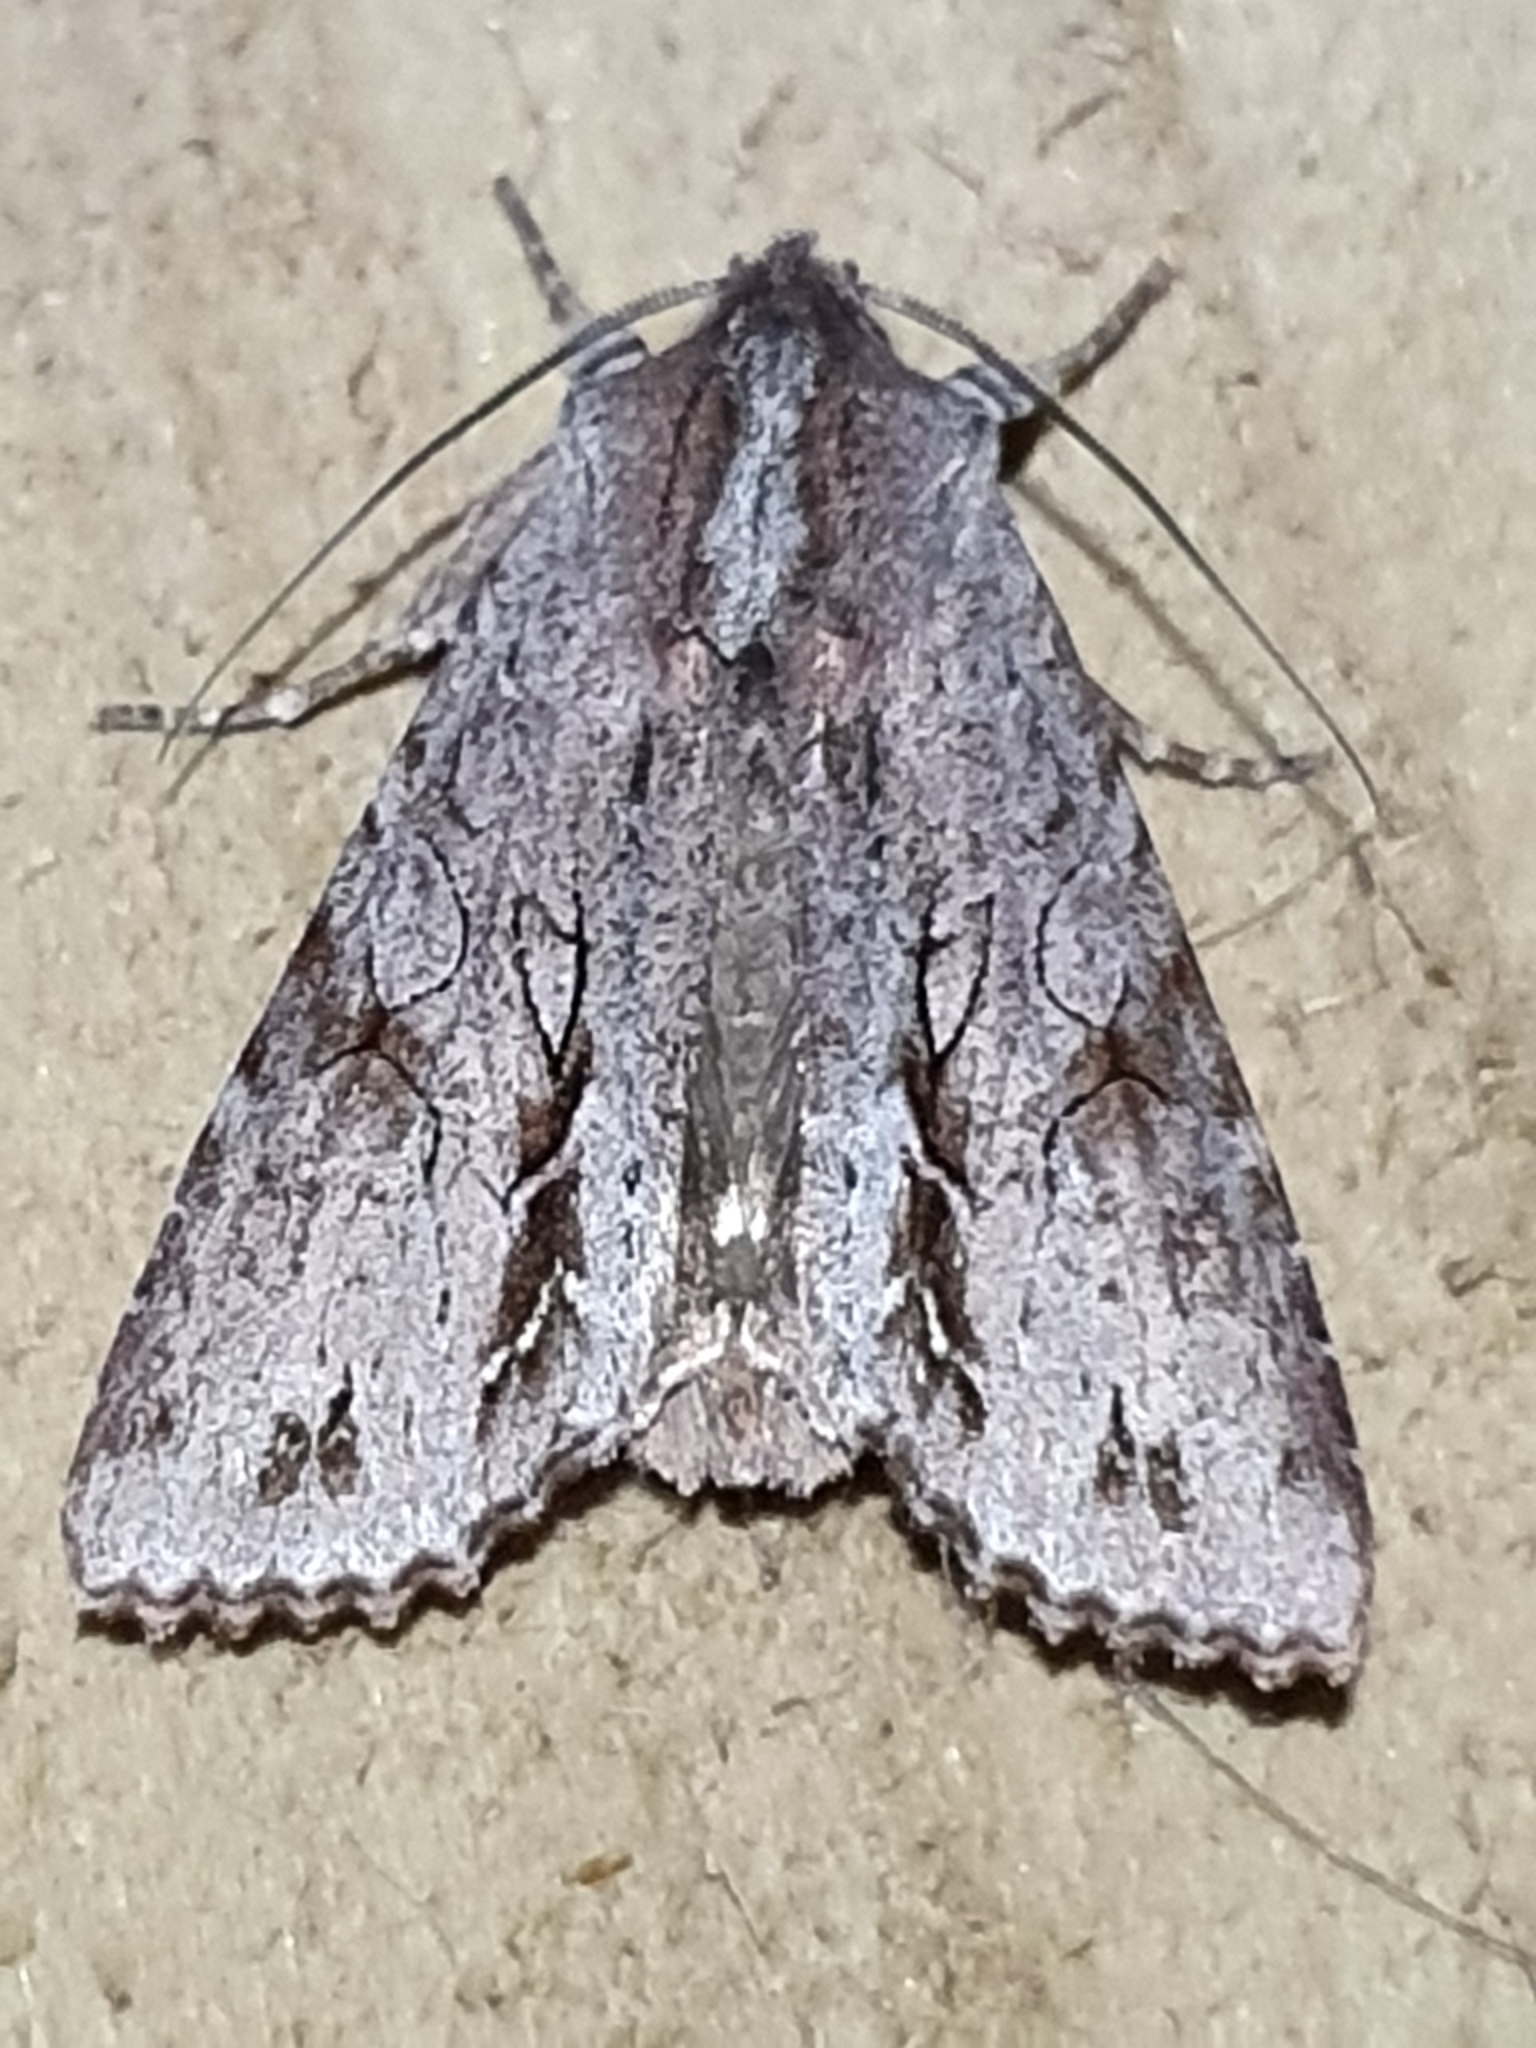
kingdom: Animalia
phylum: Arthropoda
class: Insecta
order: Lepidoptera
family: Noctuidae
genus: Ichneutica
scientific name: Ichneutica
